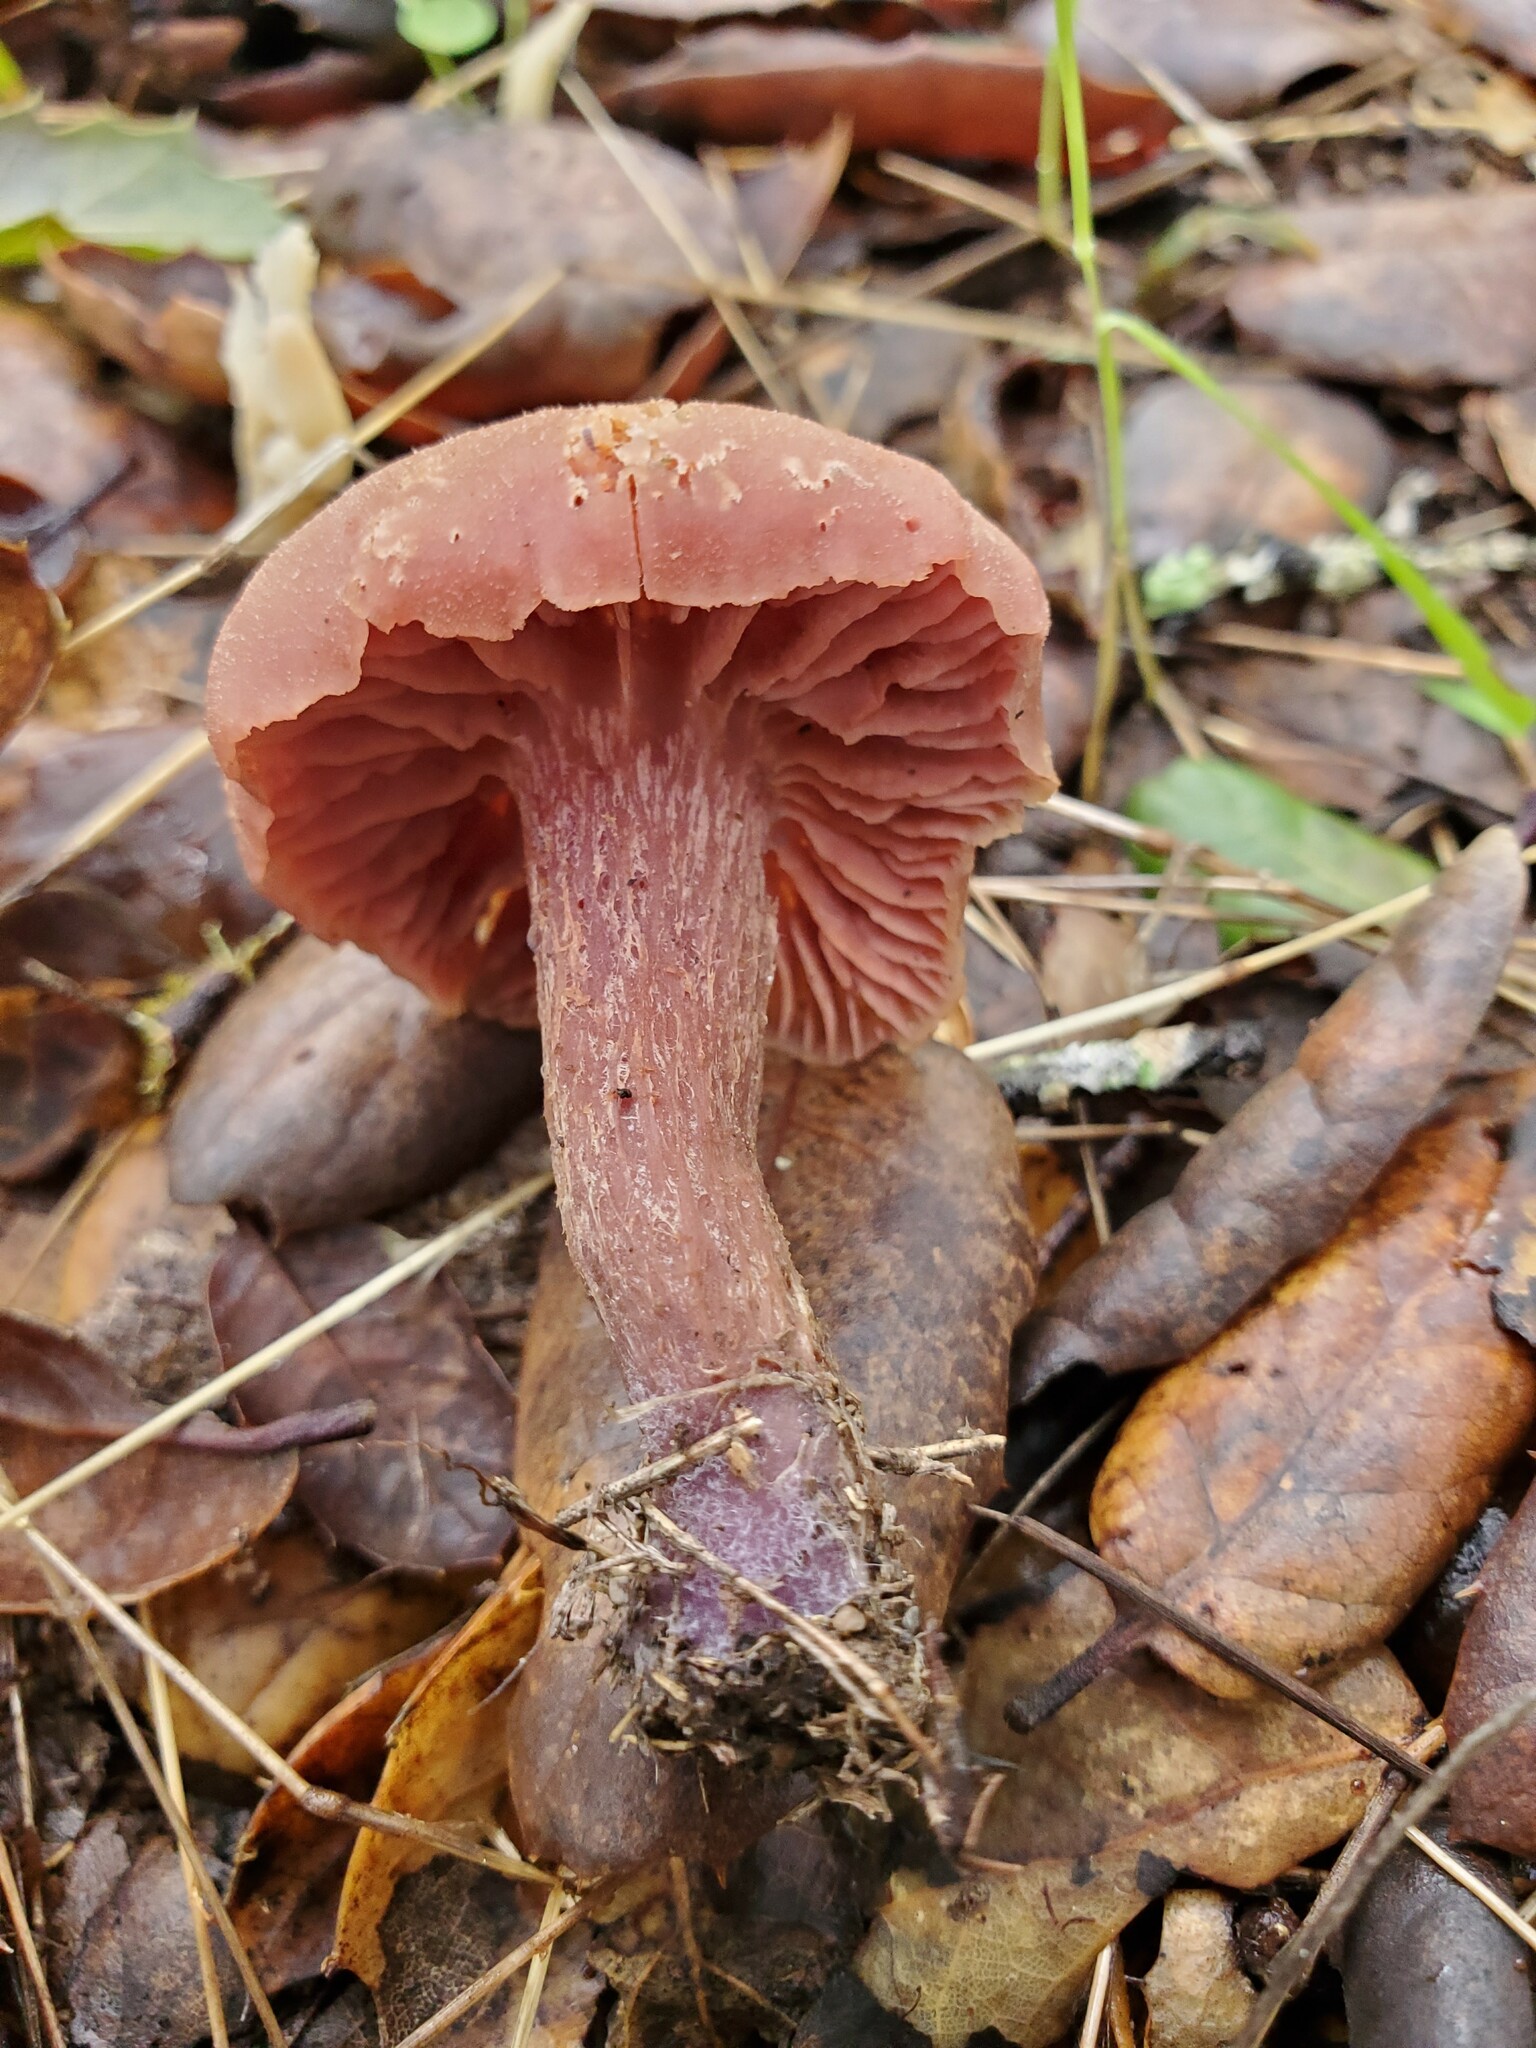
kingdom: Fungi
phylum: Basidiomycota
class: Agaricomycetes
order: Agaricales
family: Hydnangiaceae
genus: Laccaria
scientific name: Laccaria amethysteo-occidentalis
